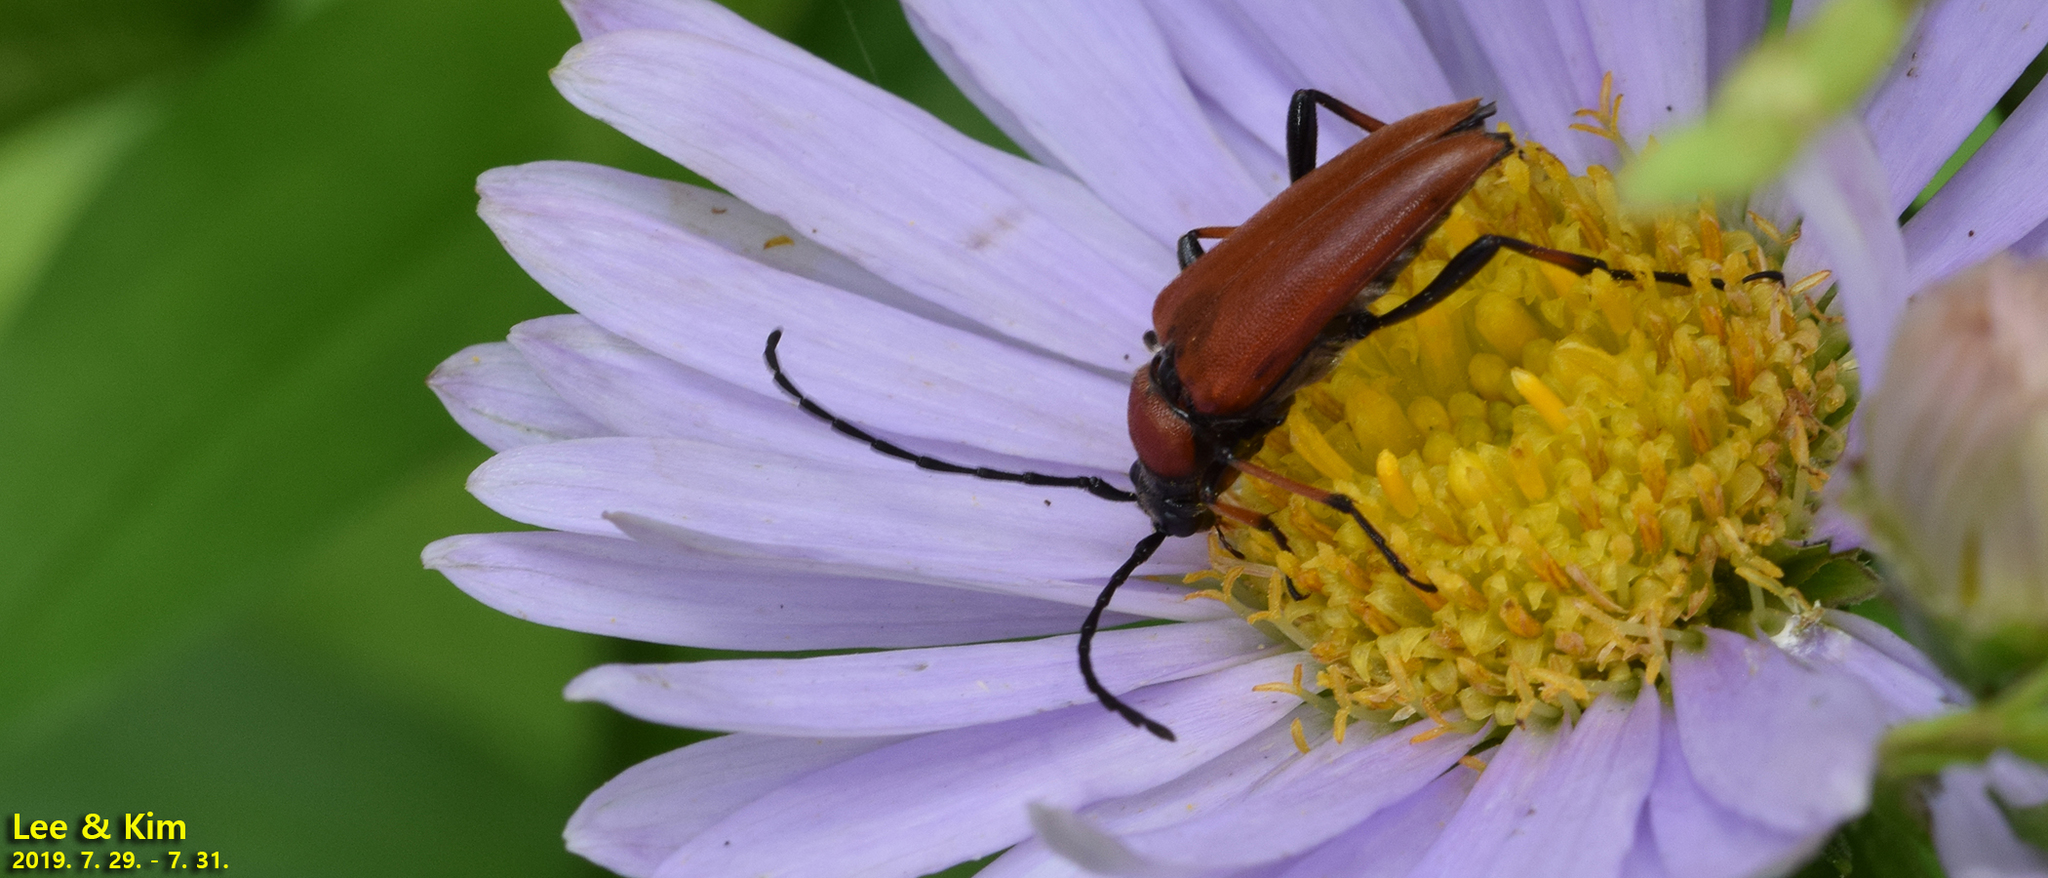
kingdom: Animalia
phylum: Arthropoda
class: Insecta
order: Coleoptera
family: Cerambycidae
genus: Stictoleptura
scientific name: Stictoleptura dichroa
